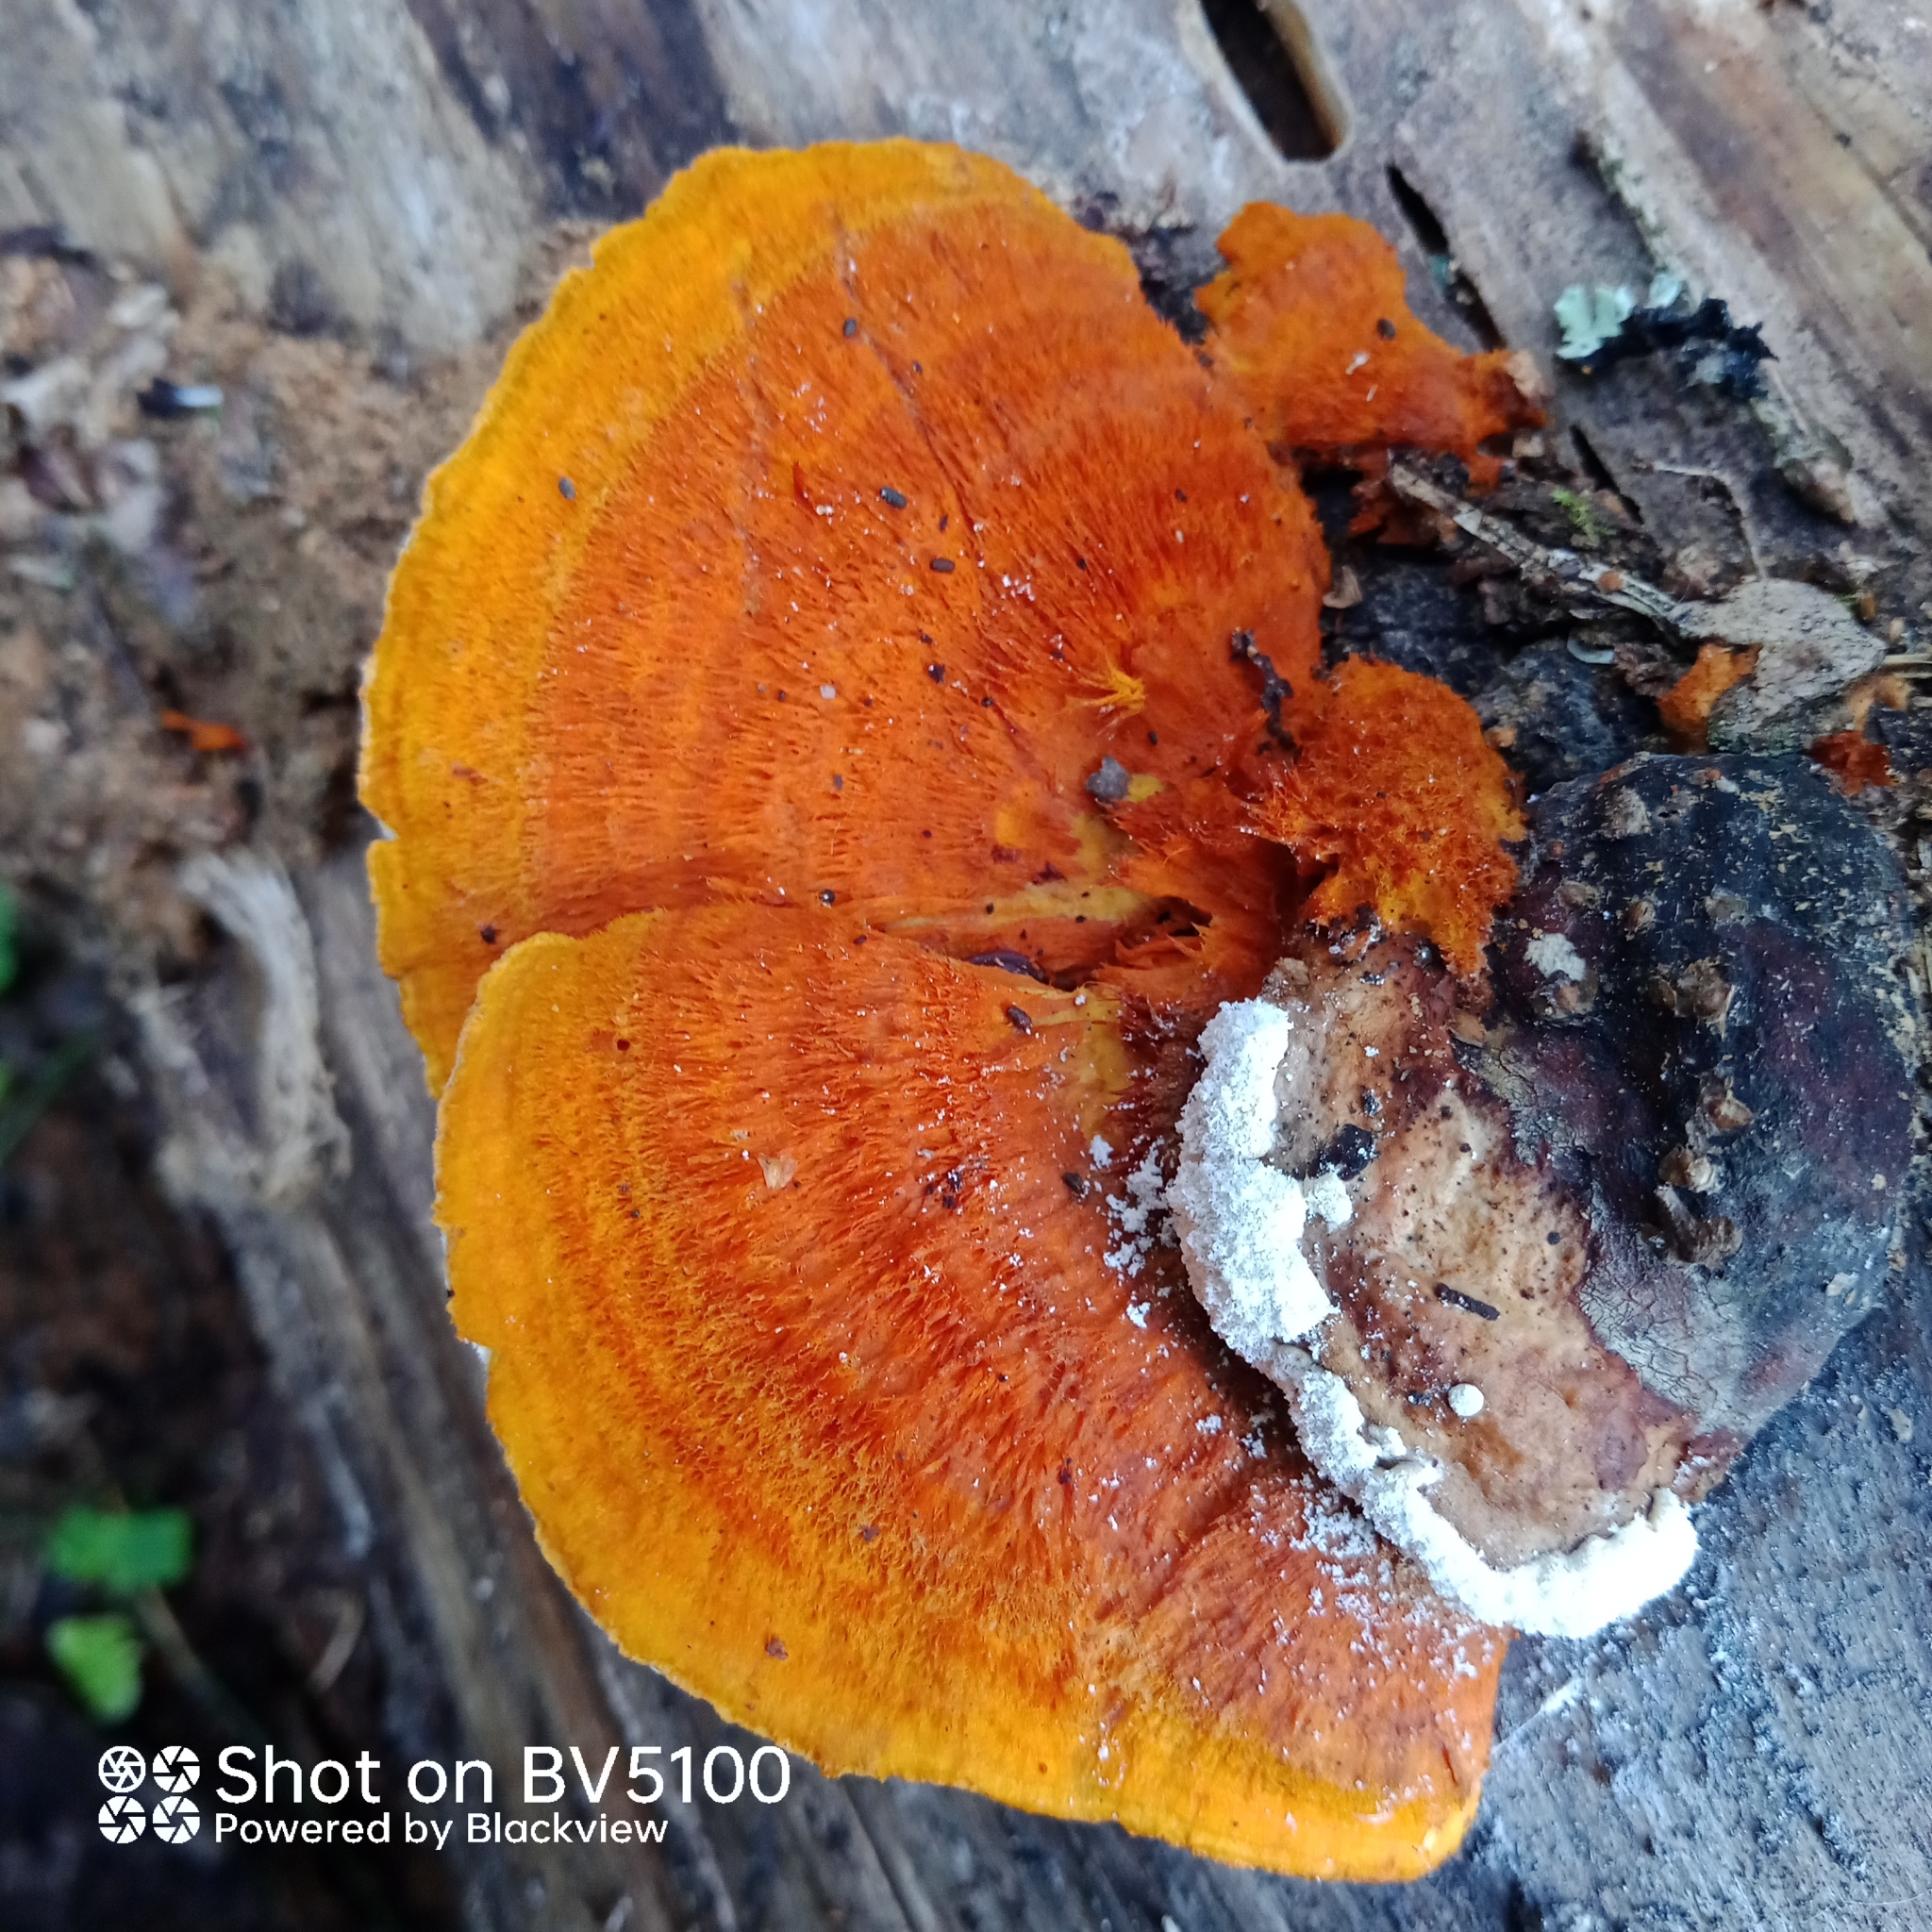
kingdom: Fungi
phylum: Basidiomycota
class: Agaricomycetes
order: Polyporales
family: Pycnoporellaceae
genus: Pycnoporellus
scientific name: Pycnoporellus fulgens
